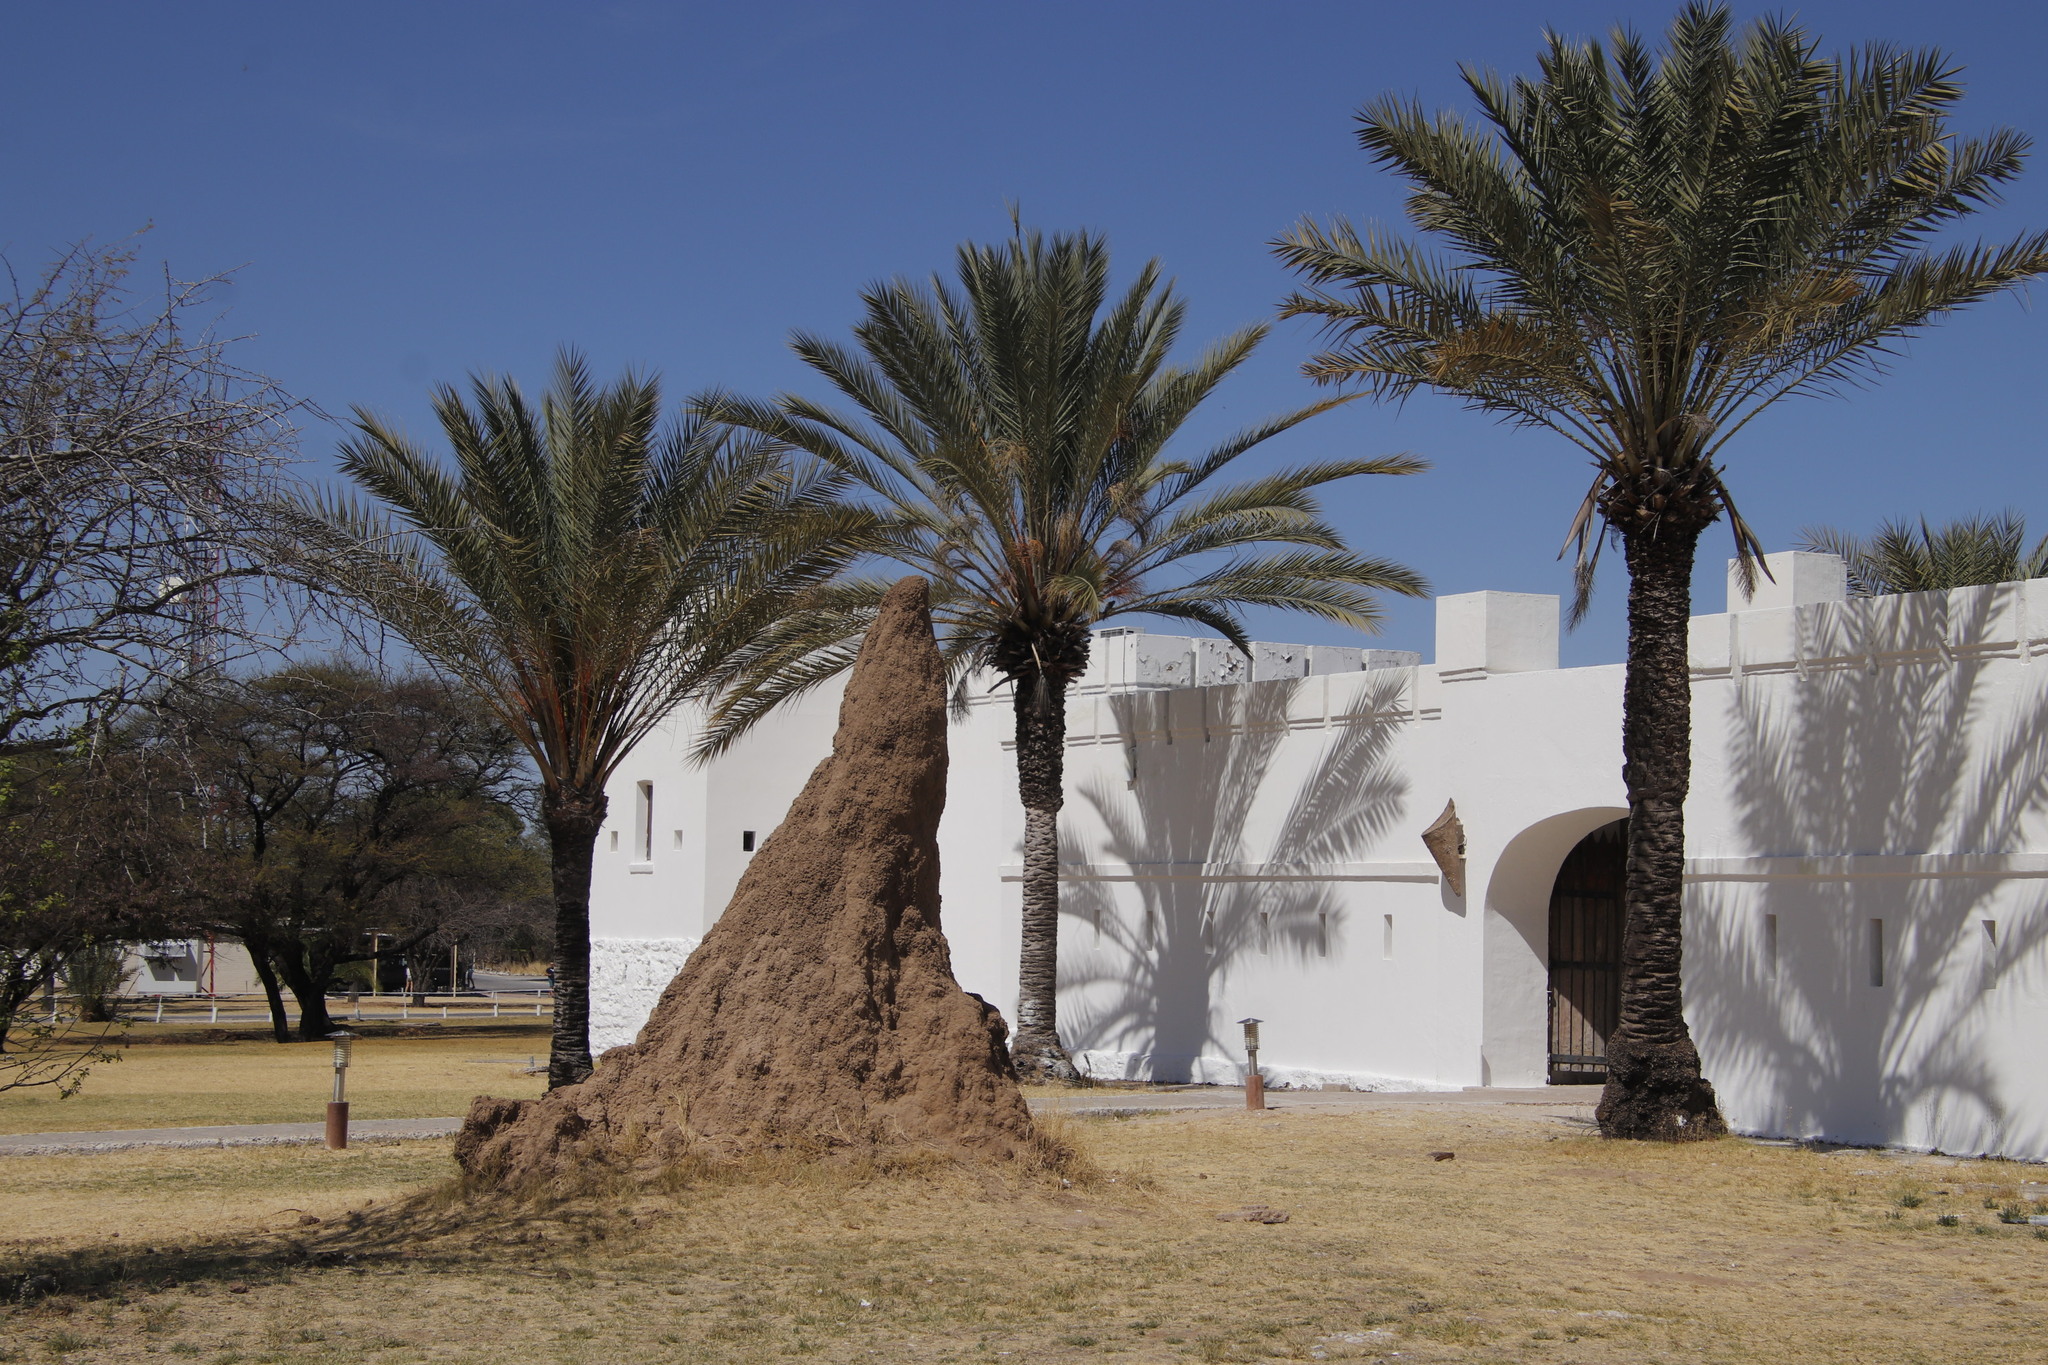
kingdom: Plantae
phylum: Tracheophyta
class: Liliopsida
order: Arecales
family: Arecaceae
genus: Phoenix
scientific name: Phoenix dactylifera
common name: Date palm
